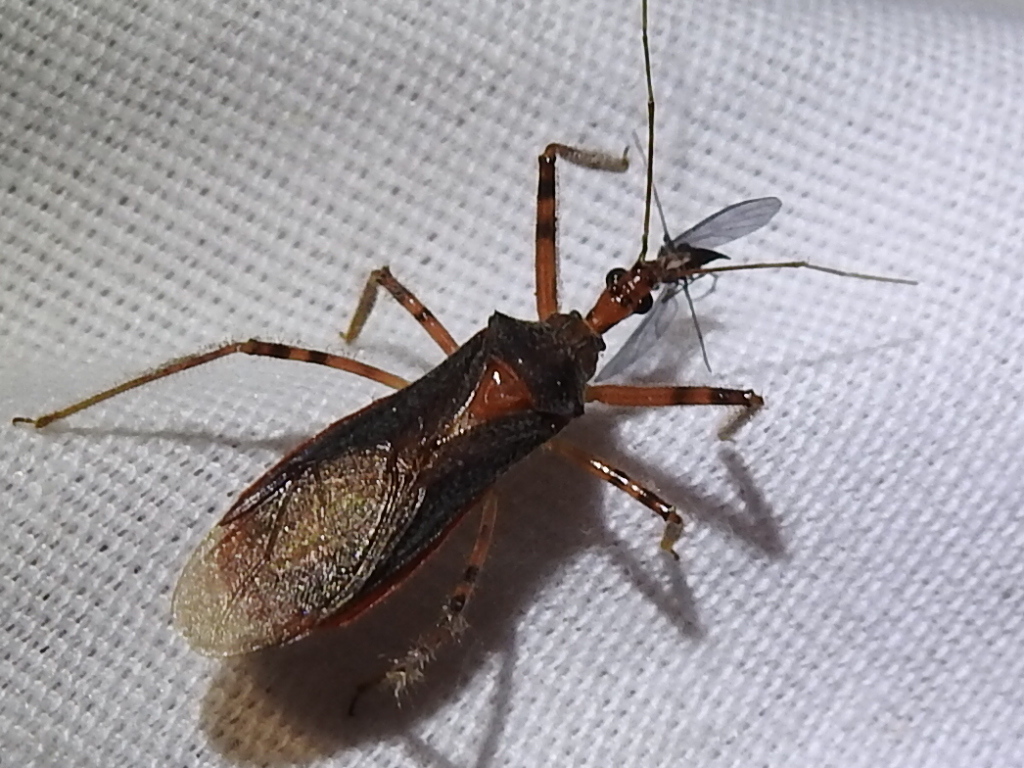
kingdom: Animalia
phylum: Arthropoda
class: Insecta
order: Hemiptera
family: Reduviidae
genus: Castolus
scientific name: Castolus ferox
